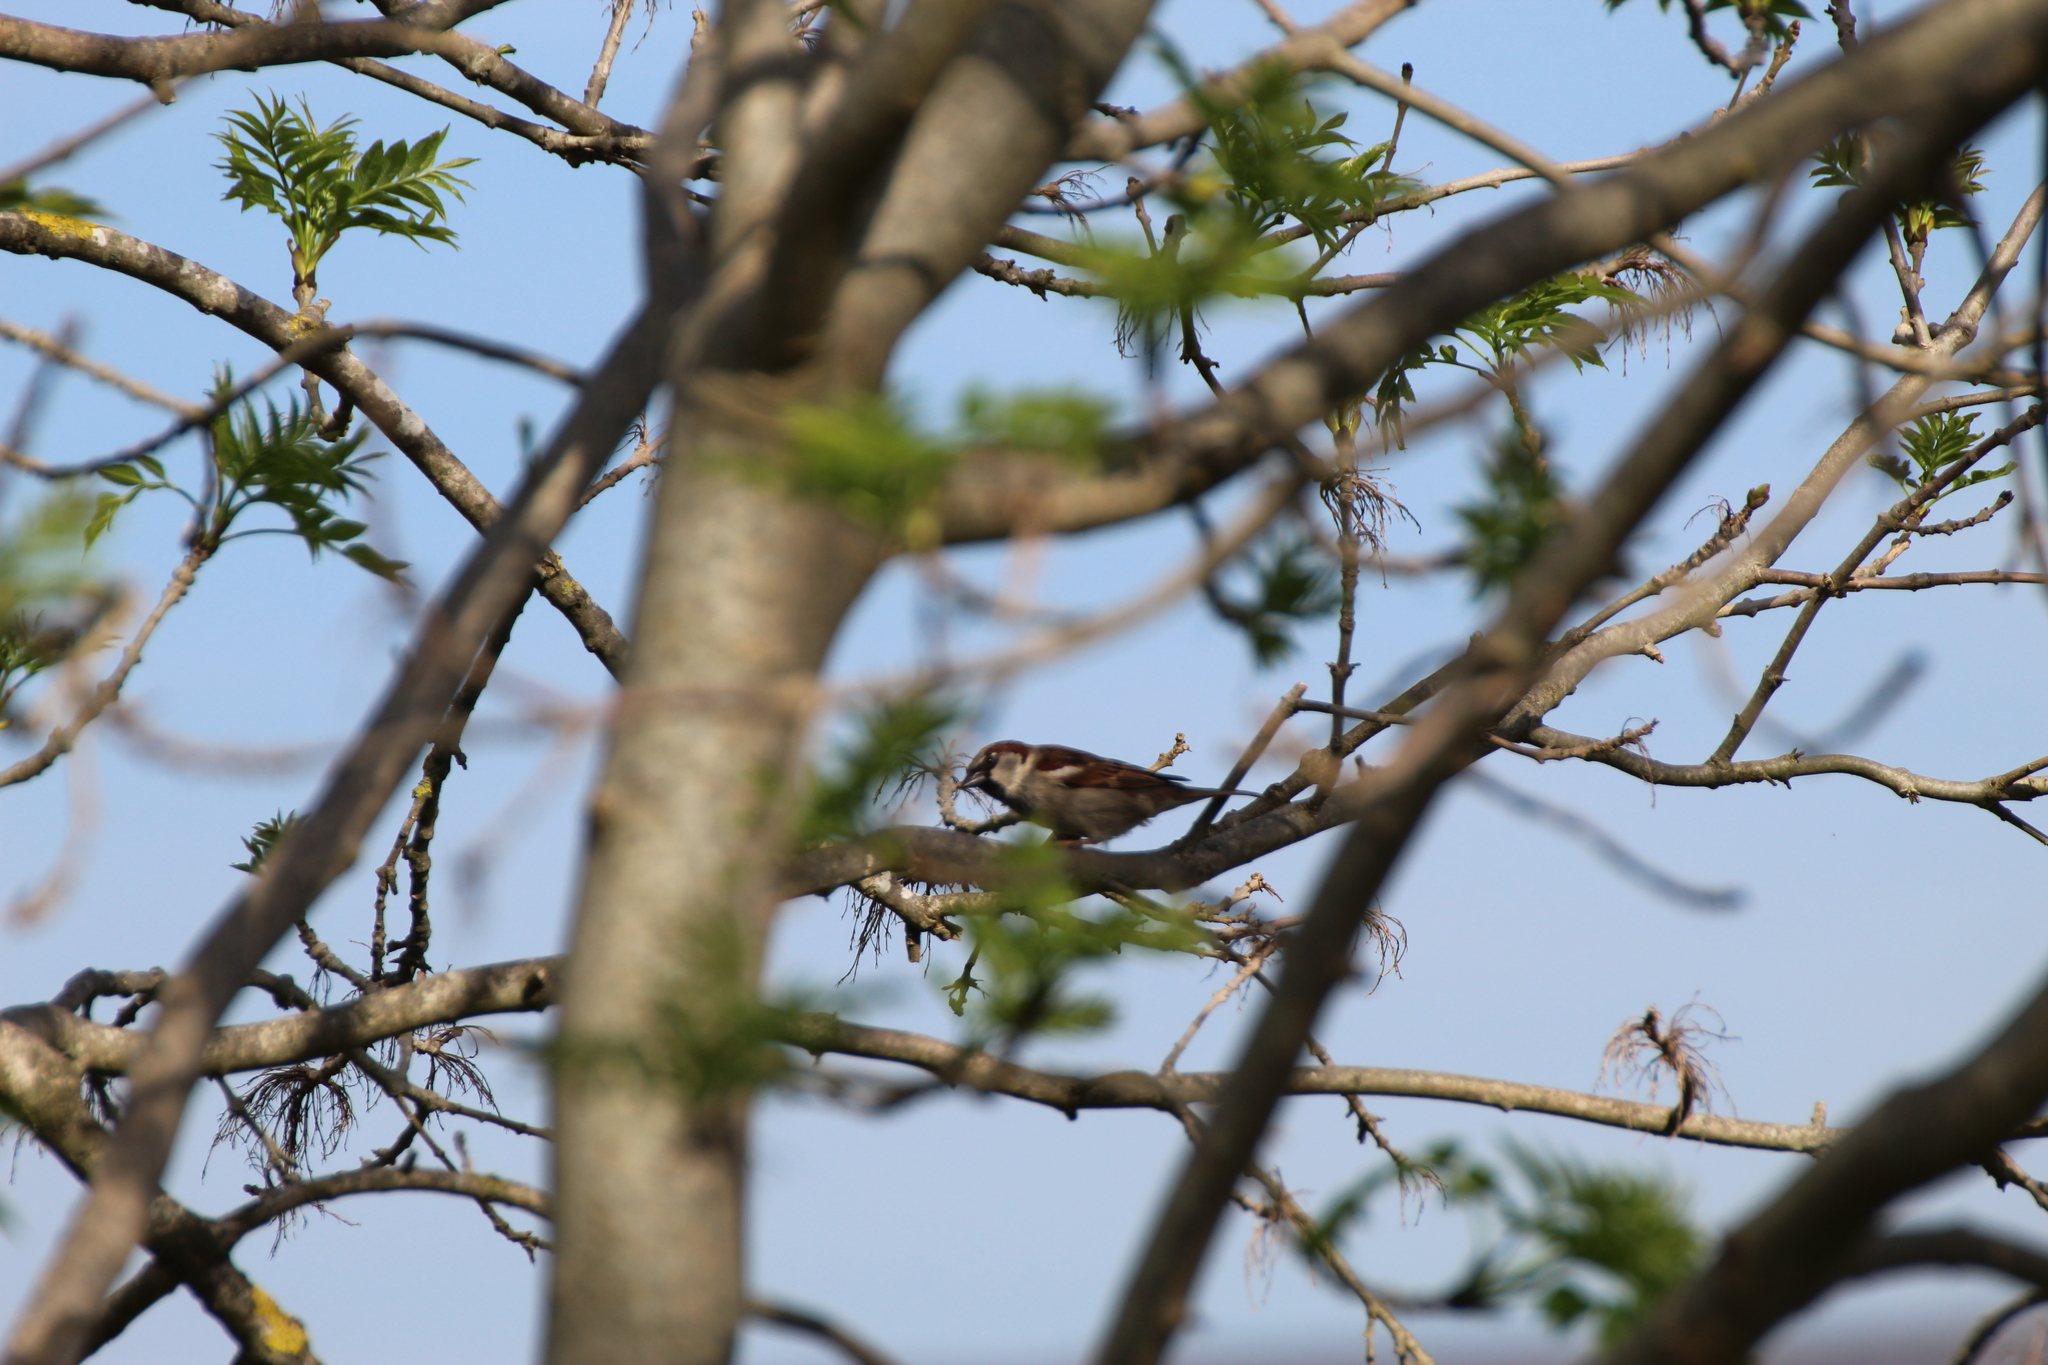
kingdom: Animalia
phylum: Chordata
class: Aves
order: Passeriformes
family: Passeridae
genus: Passer
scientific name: Passer domesticus
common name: House sparrow
